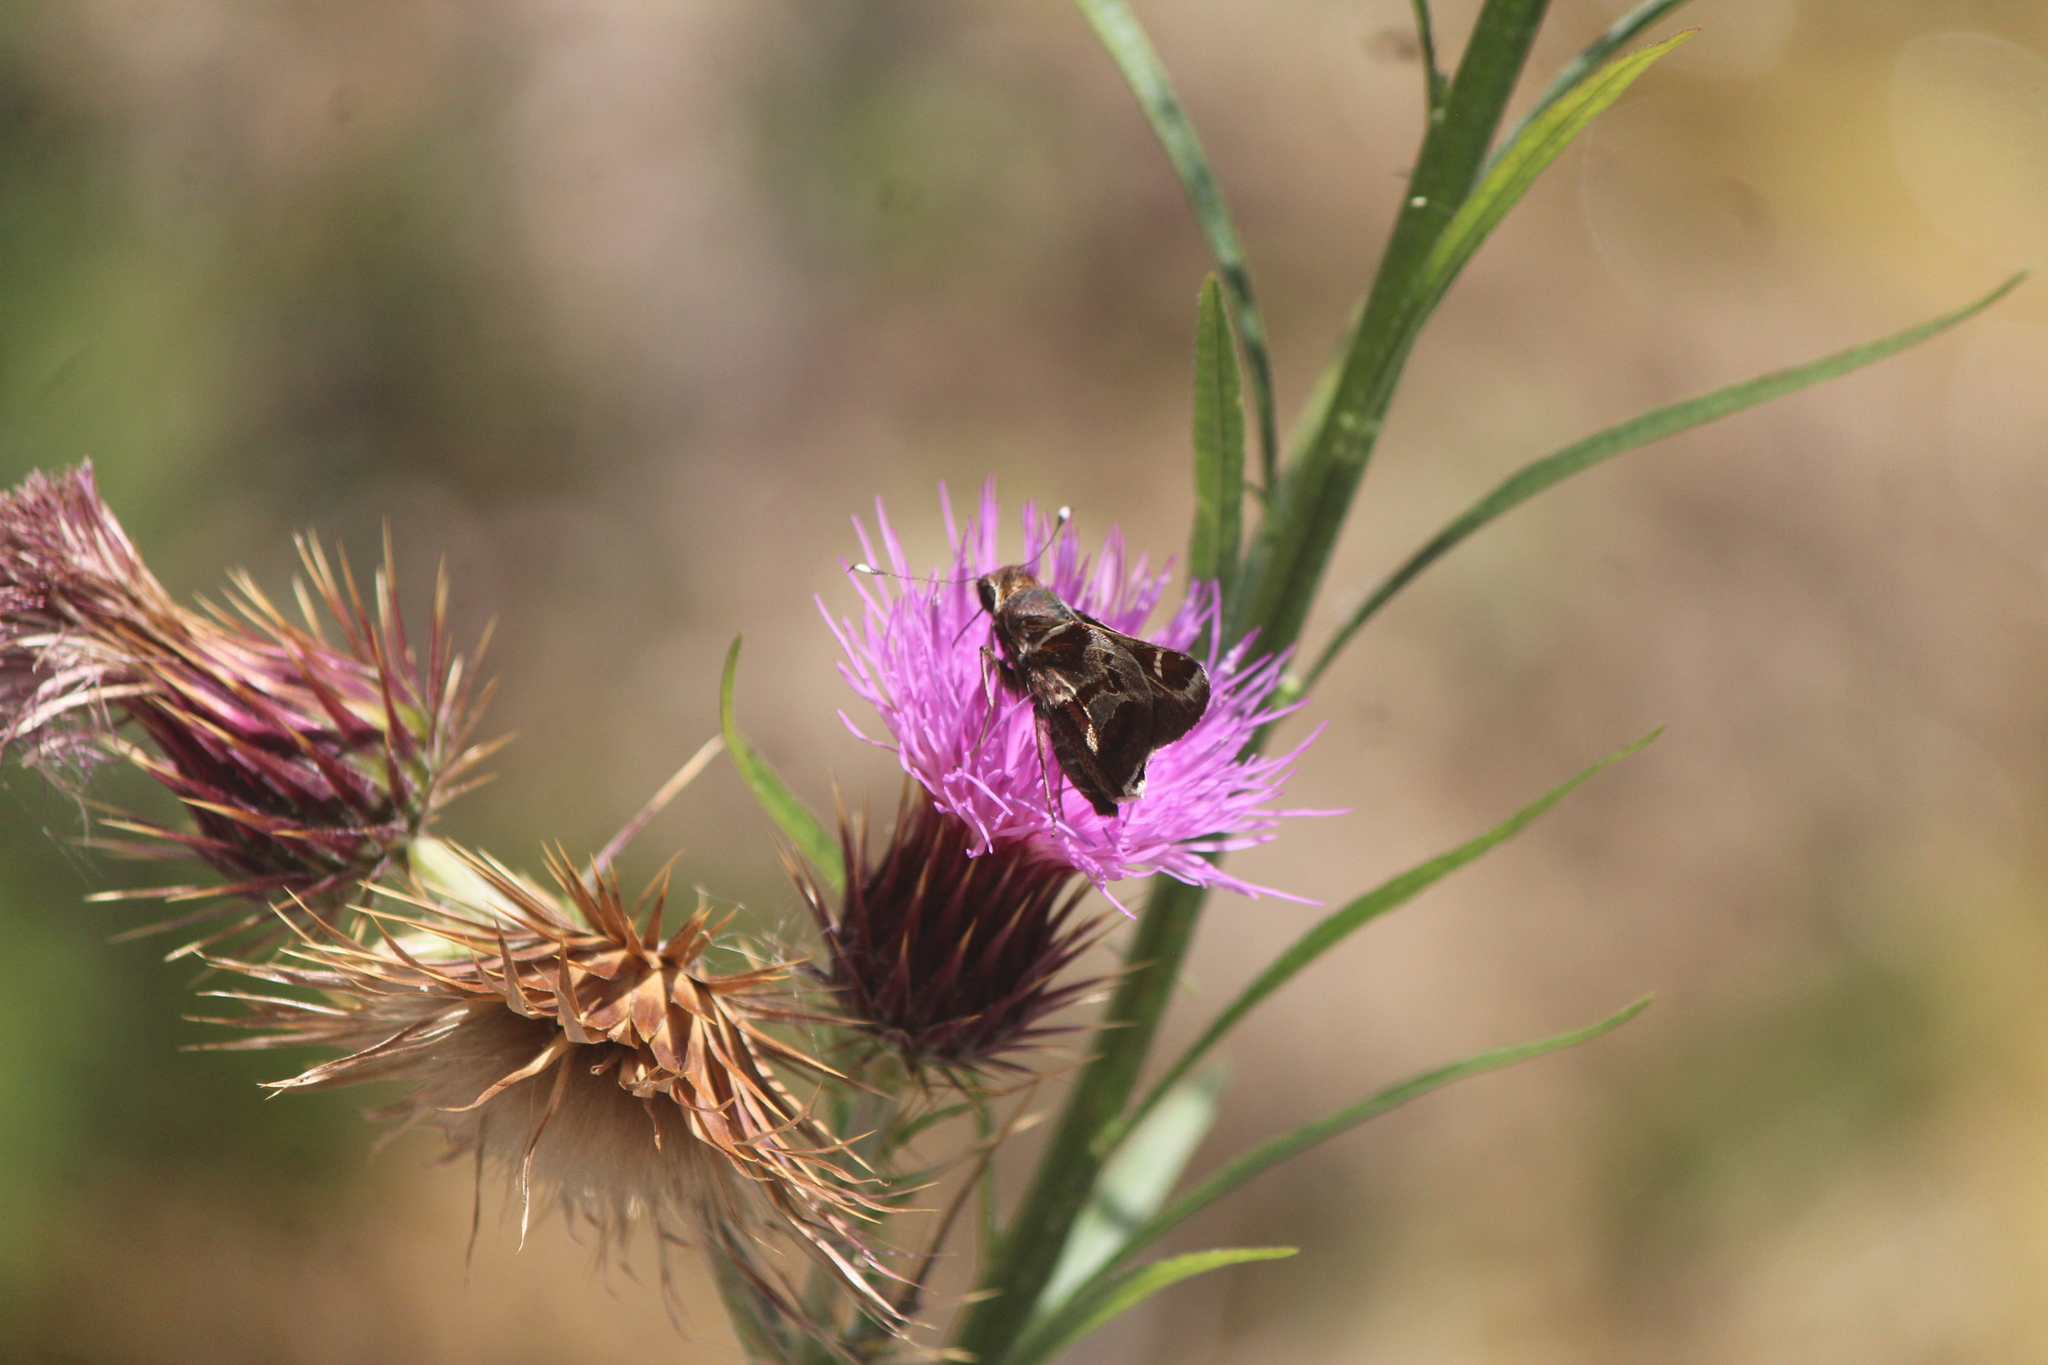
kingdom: Animalia
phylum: Arthropoda
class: Insecta
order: Lepidoptera
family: Hesperiidae
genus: Thespieus
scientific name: Thespieus macareus
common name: Chestnut-marked skipper
